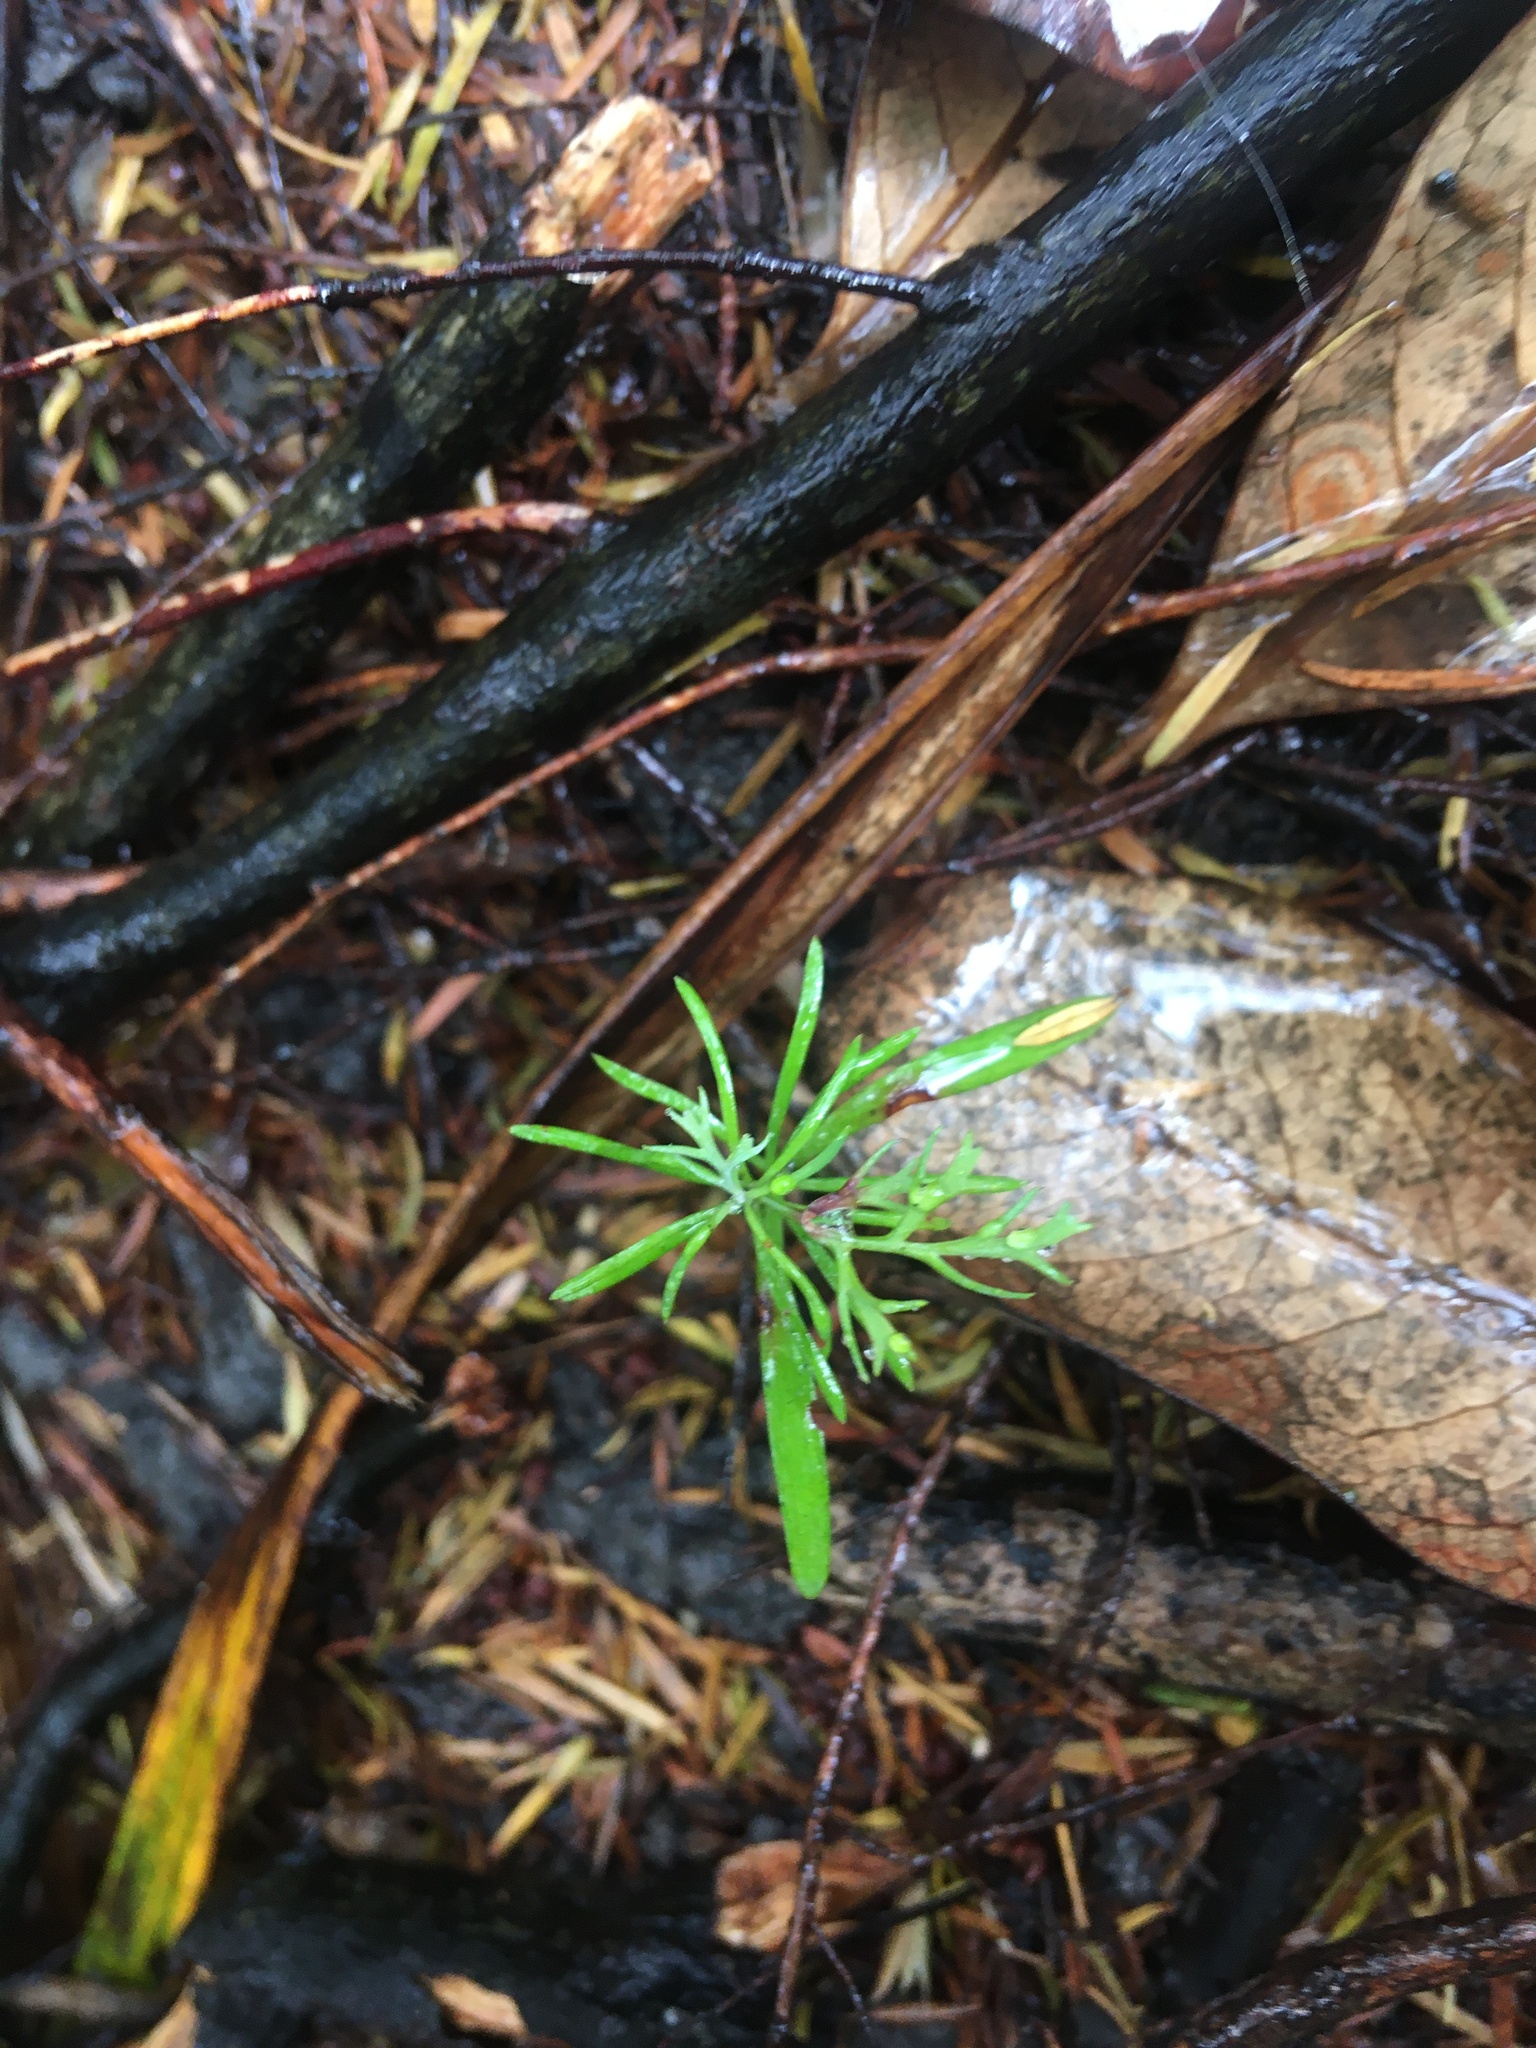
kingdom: Plantae
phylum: Tracheophyta
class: Pinopsida
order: Pinales
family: Phyllocladaceae
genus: Phyllocladus
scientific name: Phyllocladus trichomanoides
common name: Celery pine
